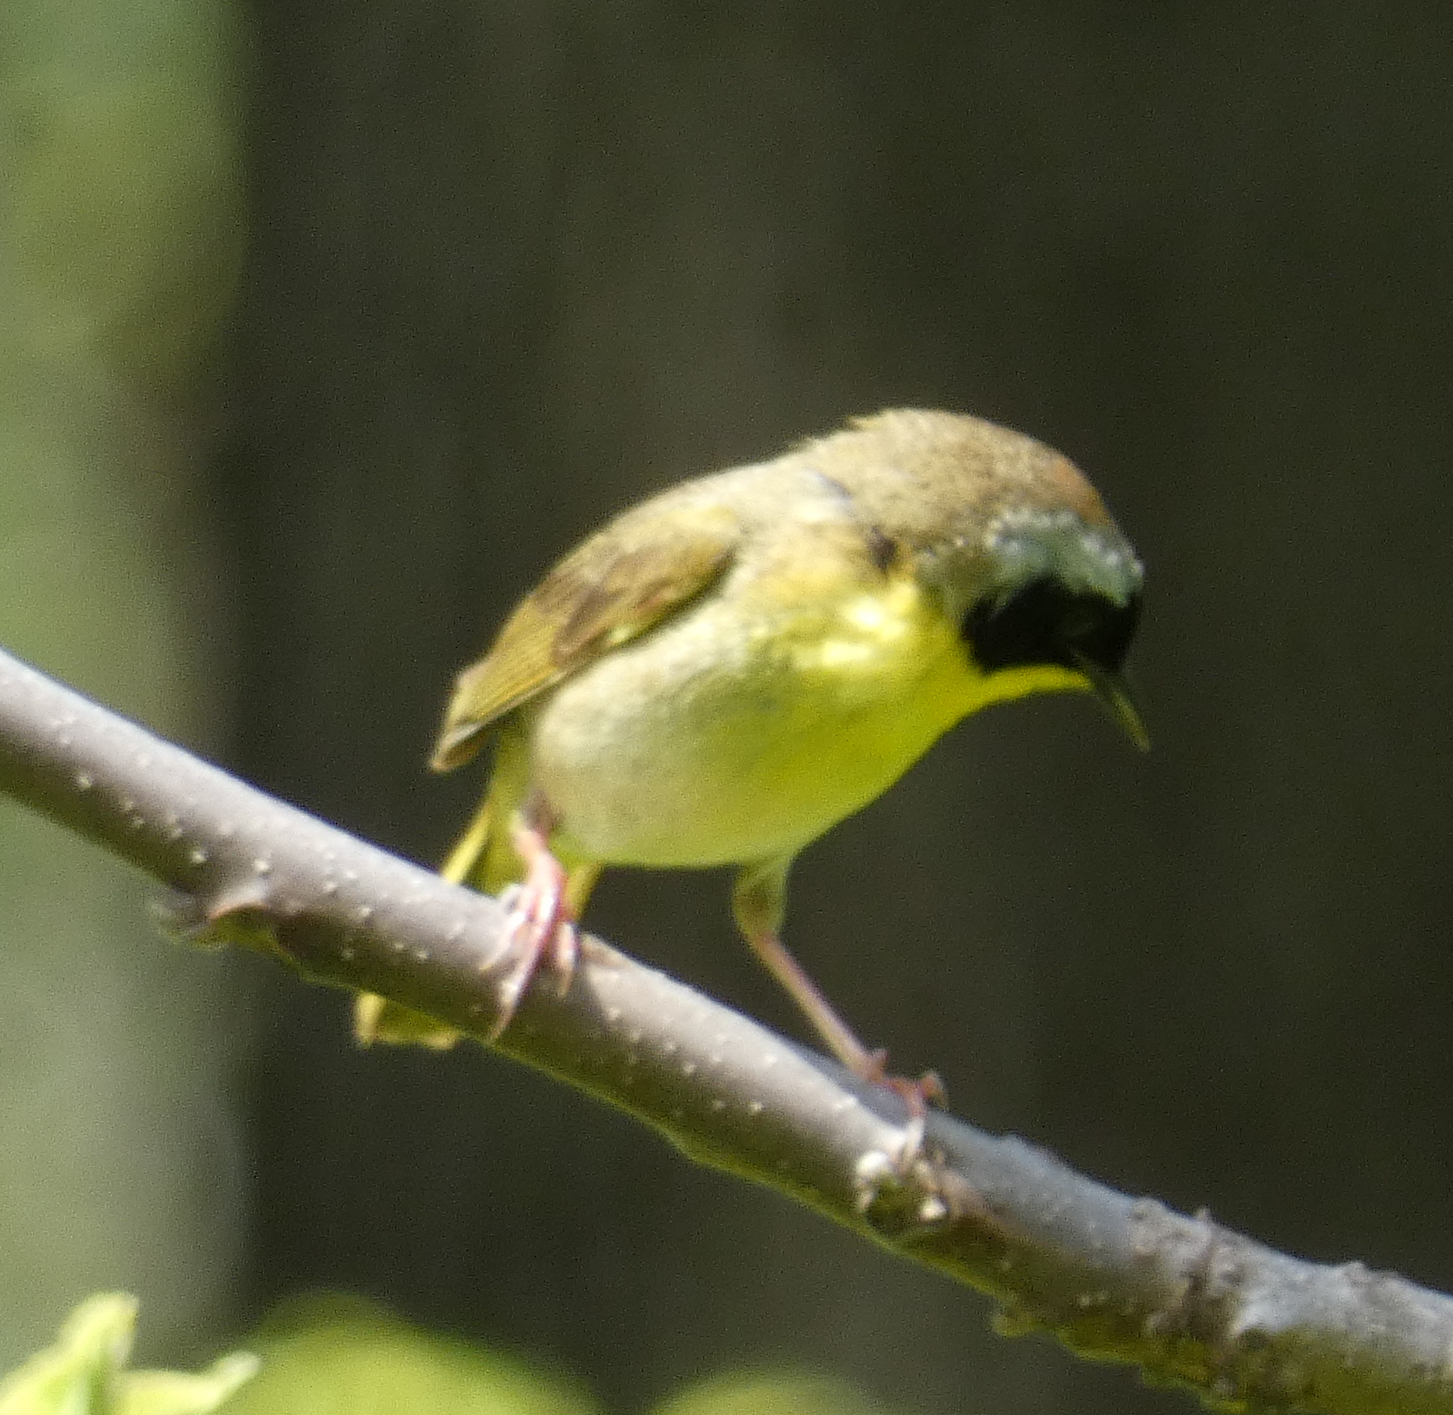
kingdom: Animalia
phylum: Chordata
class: Aves
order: Passeriformes
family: Parulidae
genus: Geothlypis
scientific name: Geothlypis trichas
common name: Common yellowthroat
